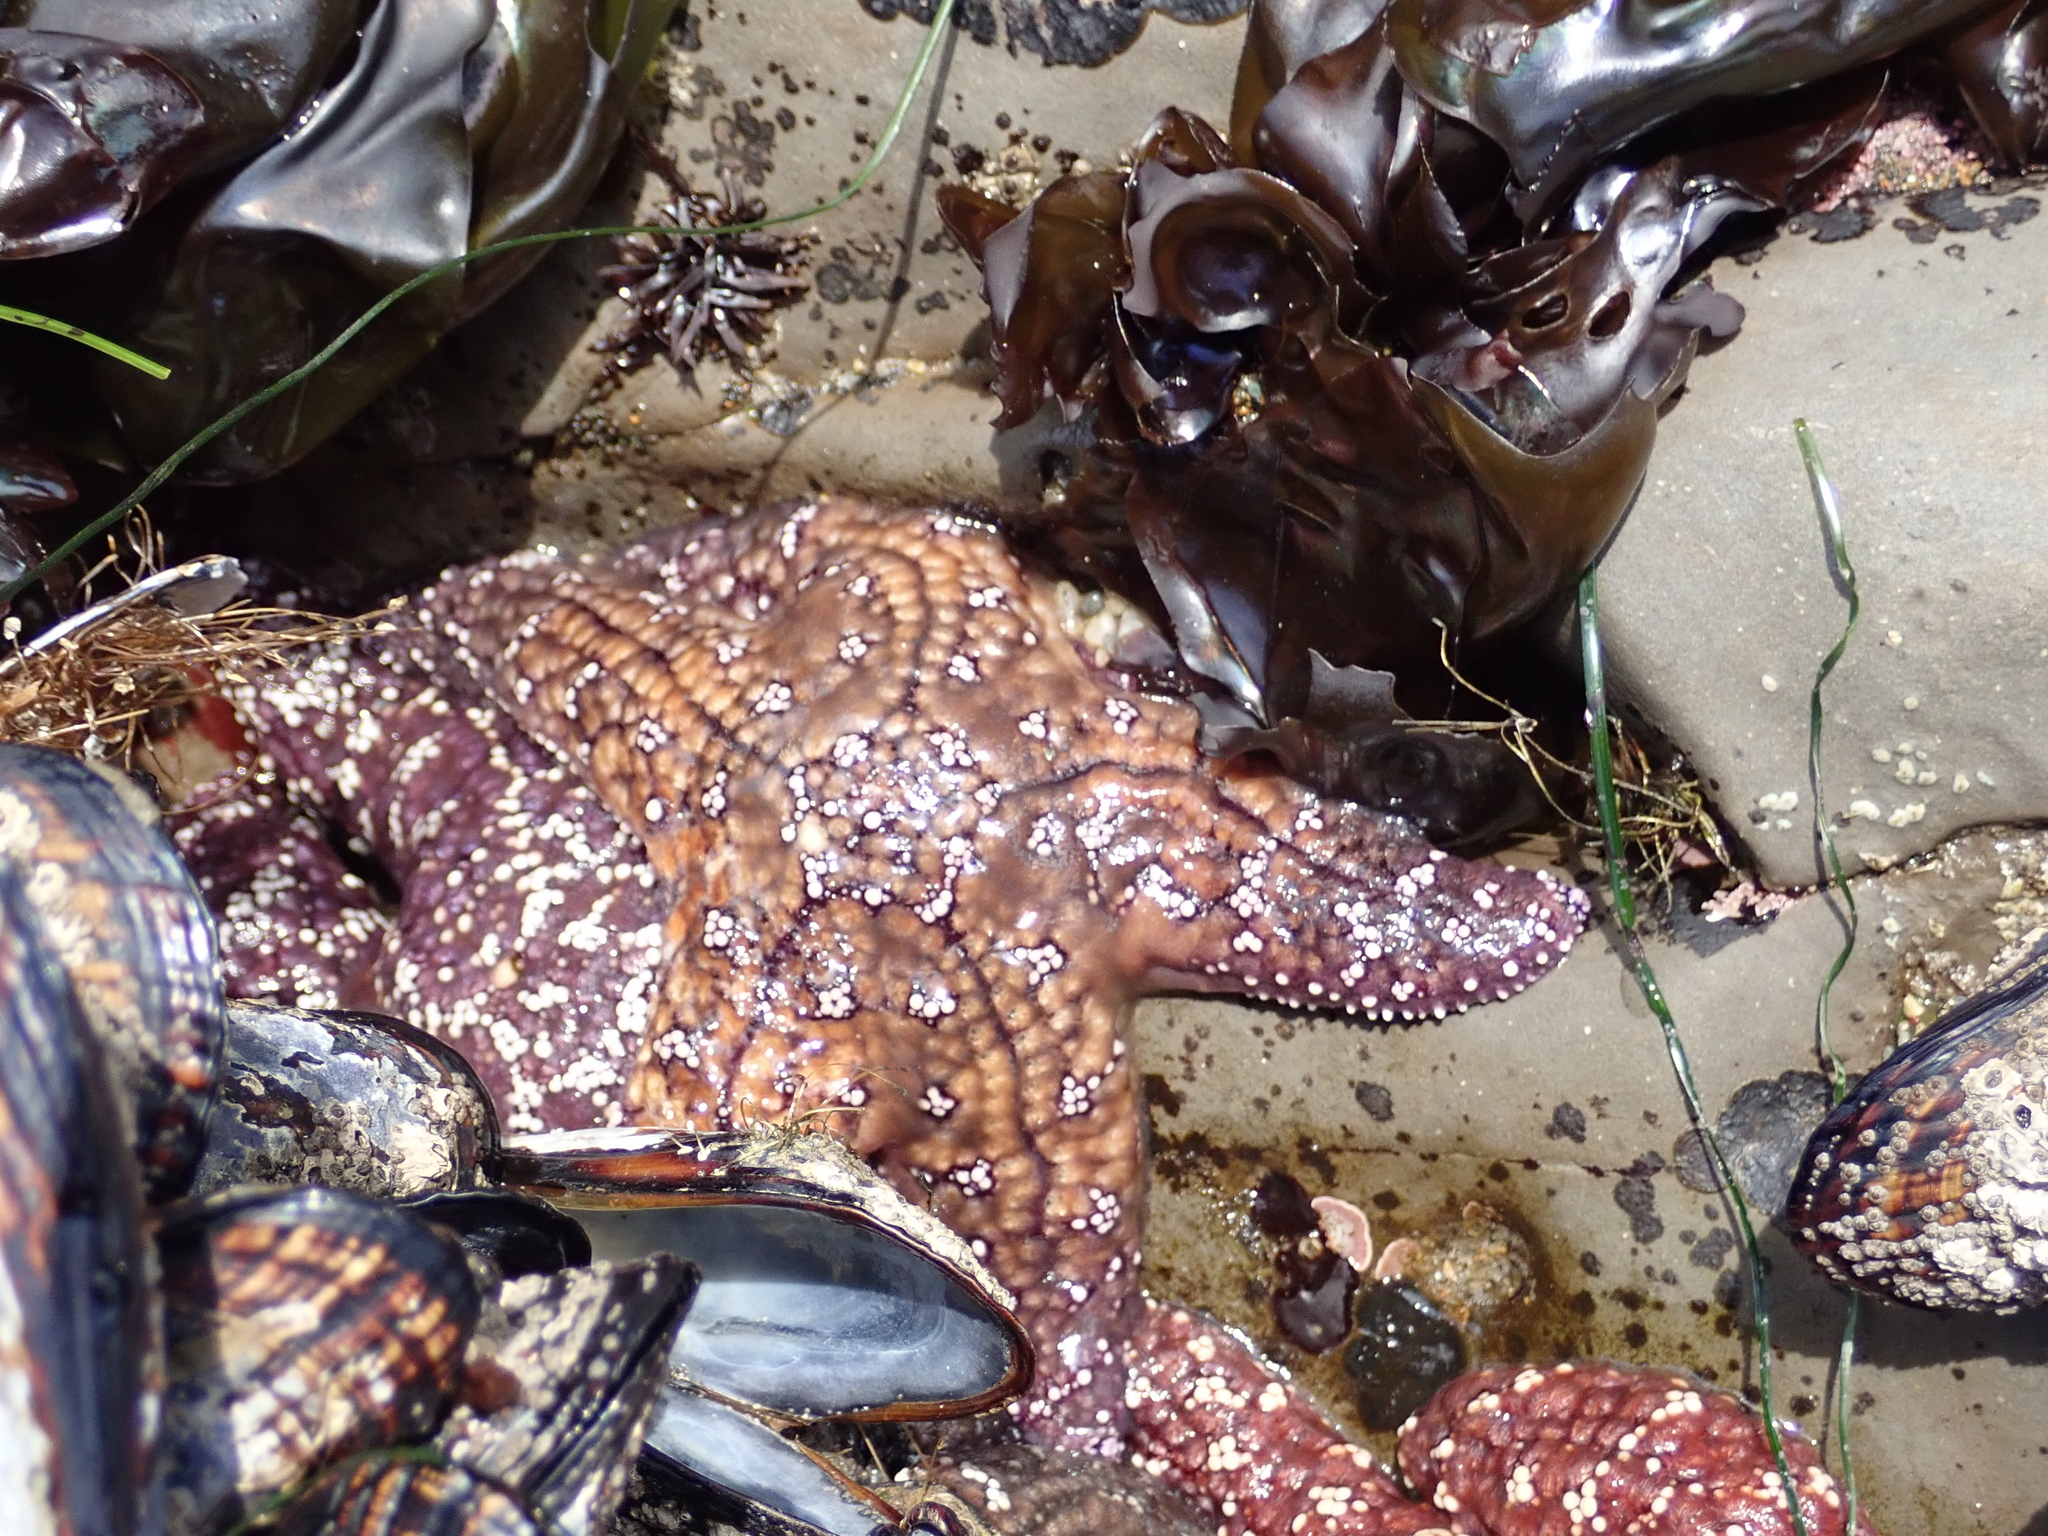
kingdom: Animalia
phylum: Echinodermata
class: Asteroidea
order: Forcipulatida
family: Asteriidae
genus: Pisaster
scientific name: Pisaster ochraceus
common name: Ochre stars
